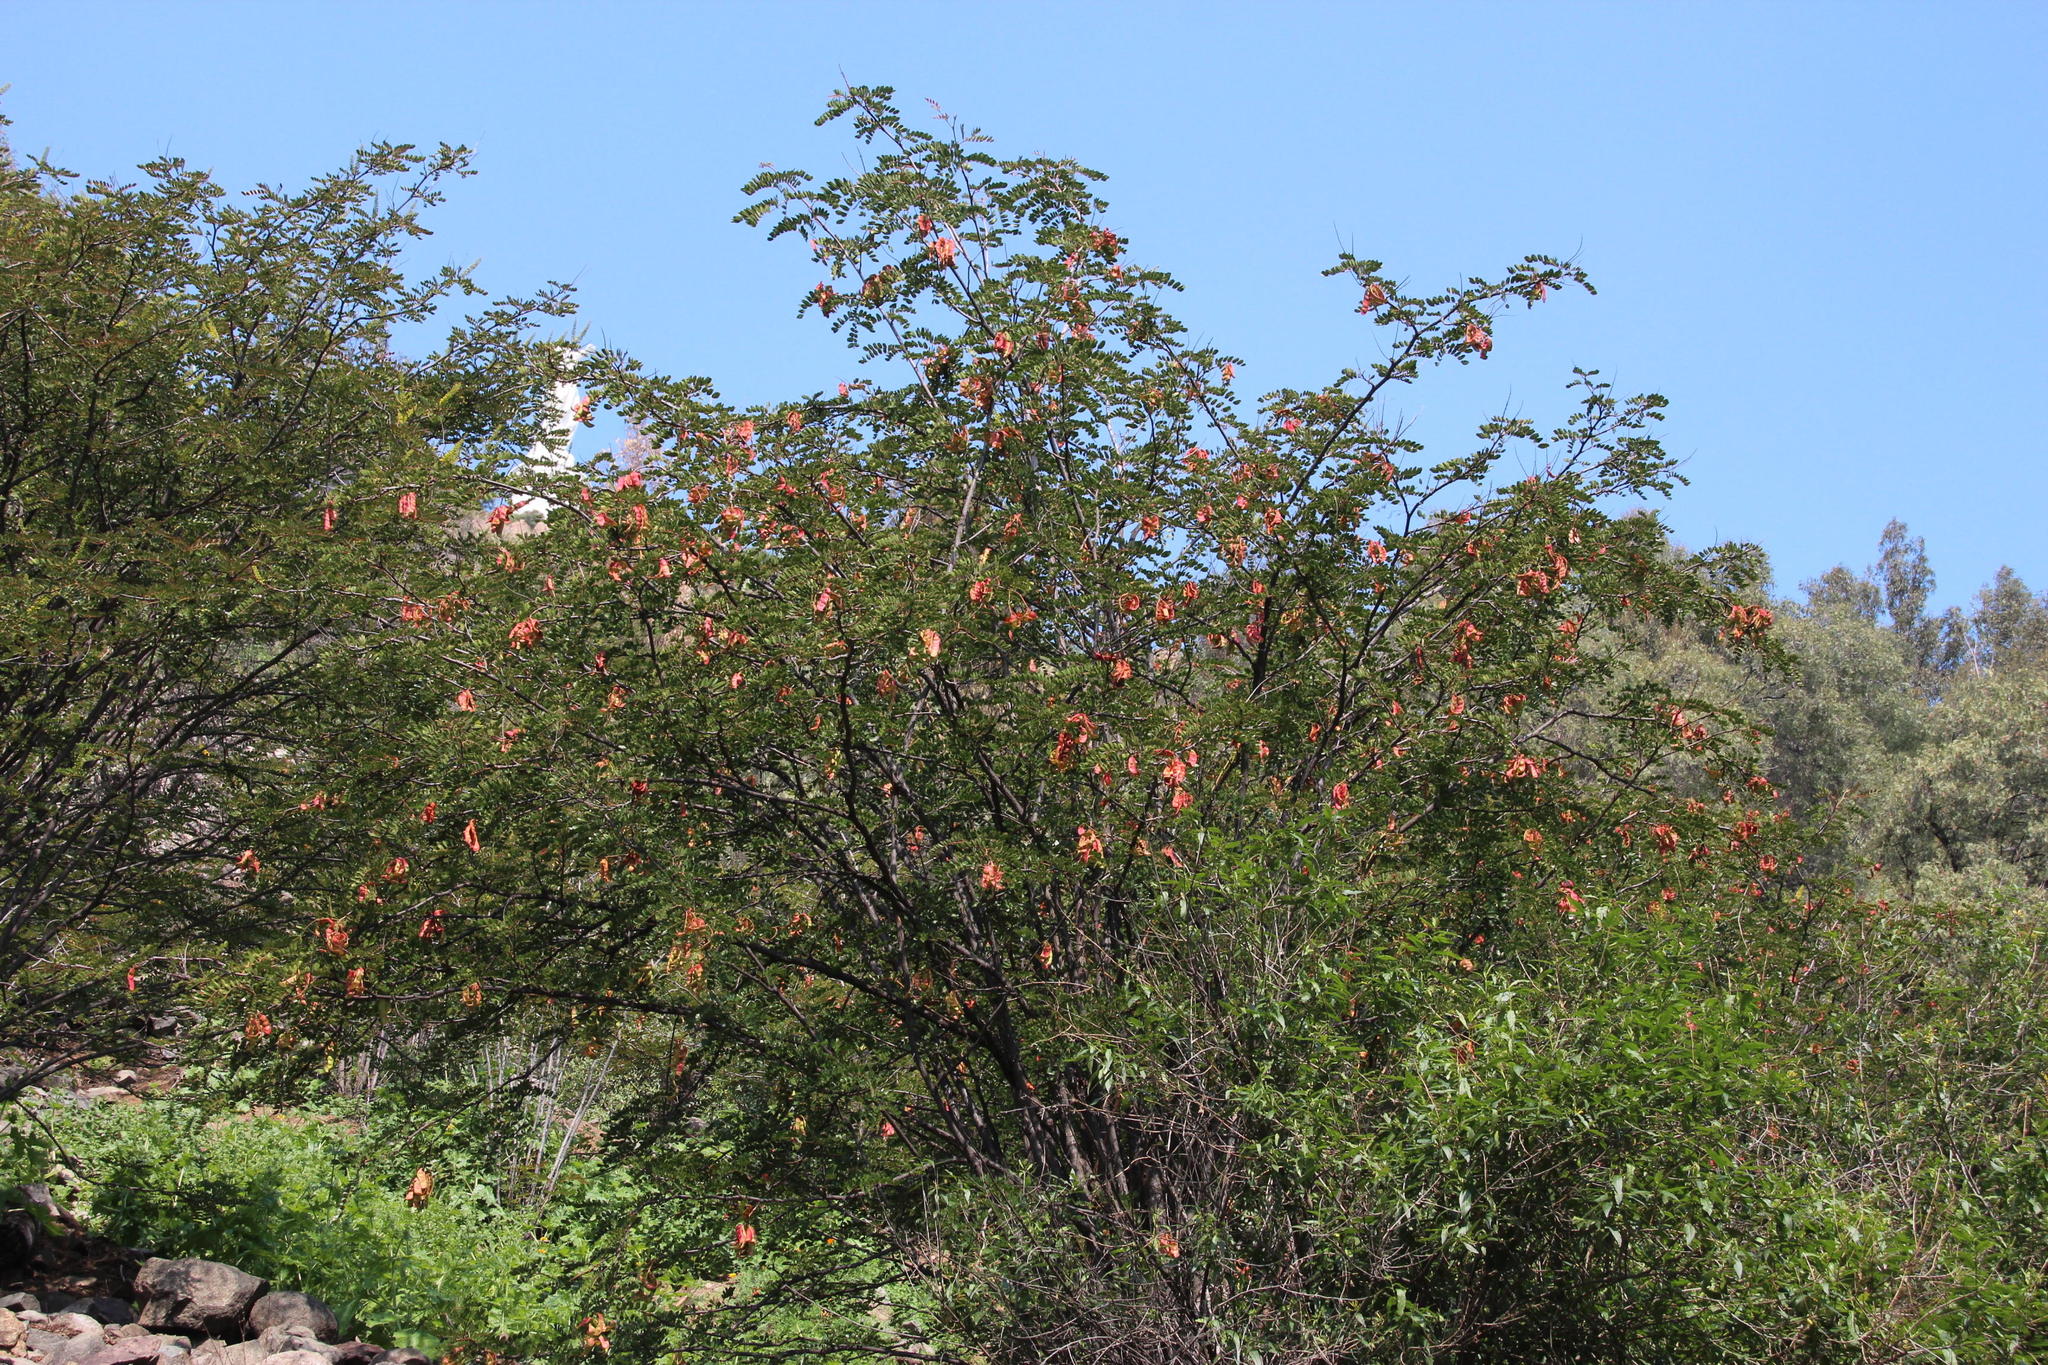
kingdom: Plantae
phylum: Tracheophyta
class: Magnoliopsida
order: Fabales
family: Fabaceae
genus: Tara
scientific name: Tara spinosa
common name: Spiny holdback
